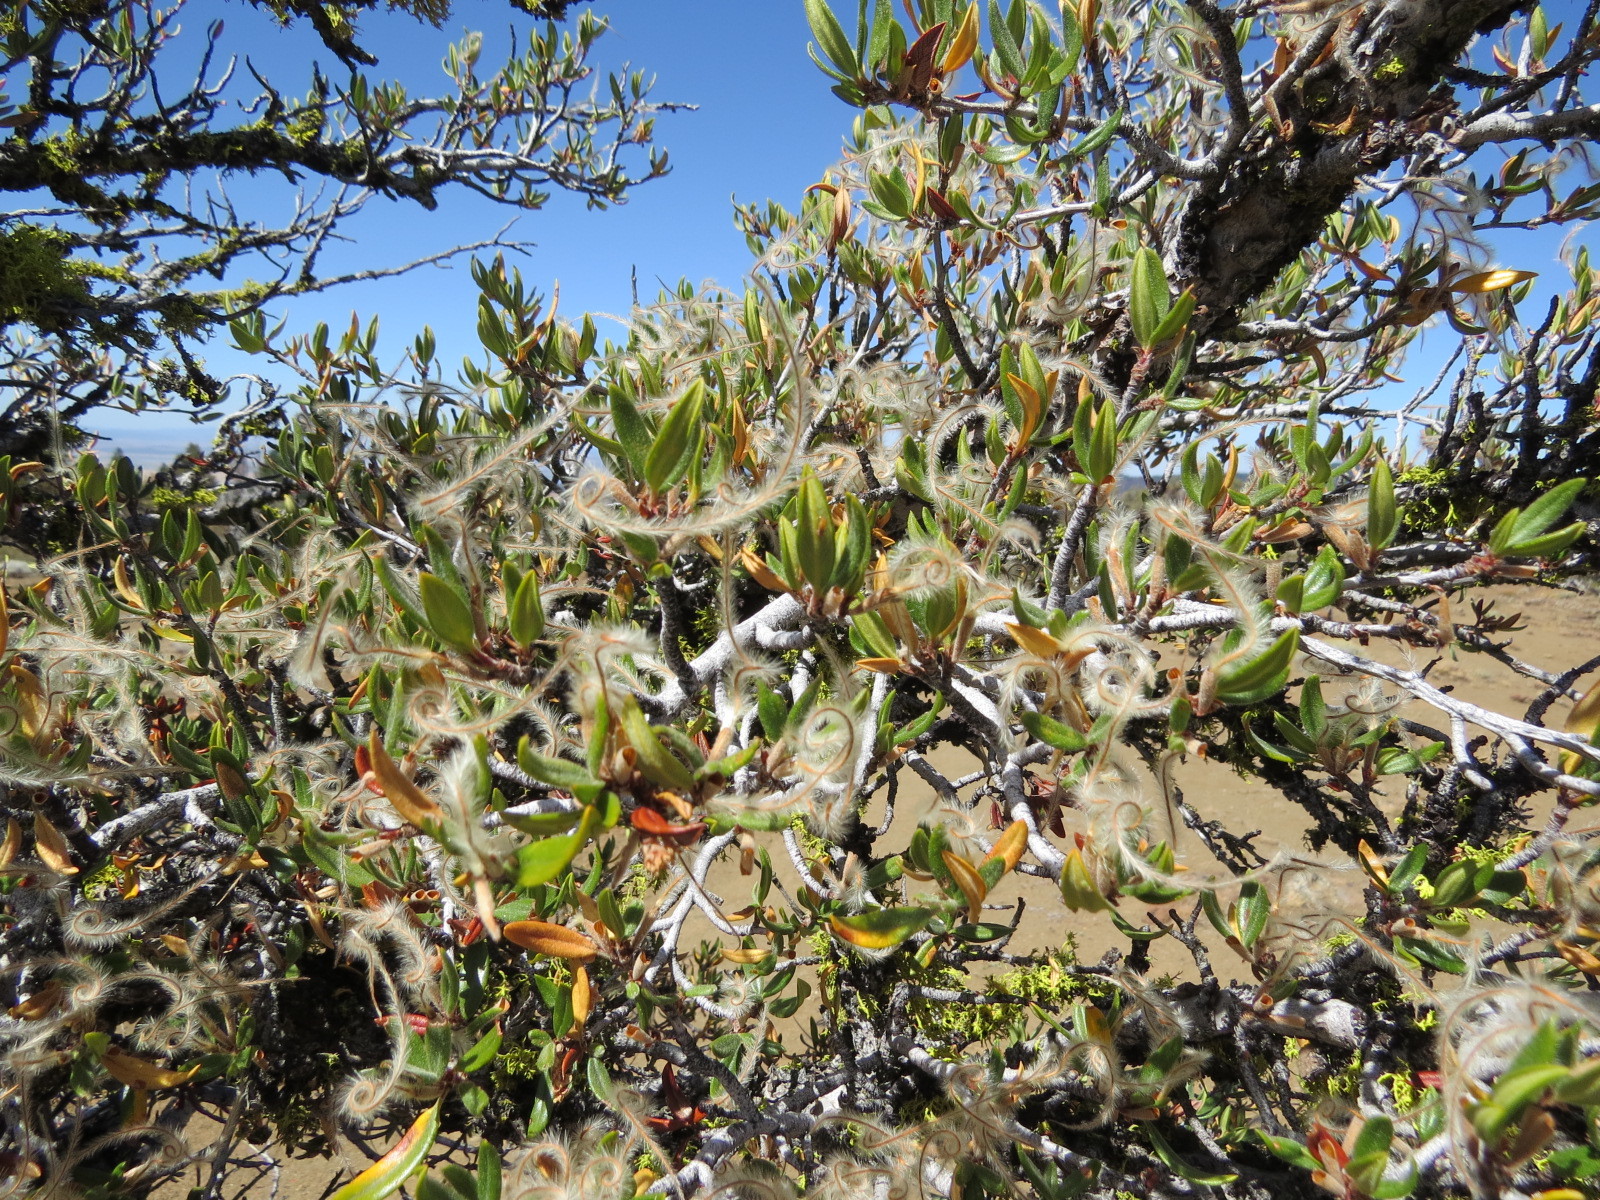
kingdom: Plantae
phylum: Tracheophyta
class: Magnoliopsida
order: Rosales
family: Rosaceae
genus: Cercocarpus
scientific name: Cercocarpus ledifolius
